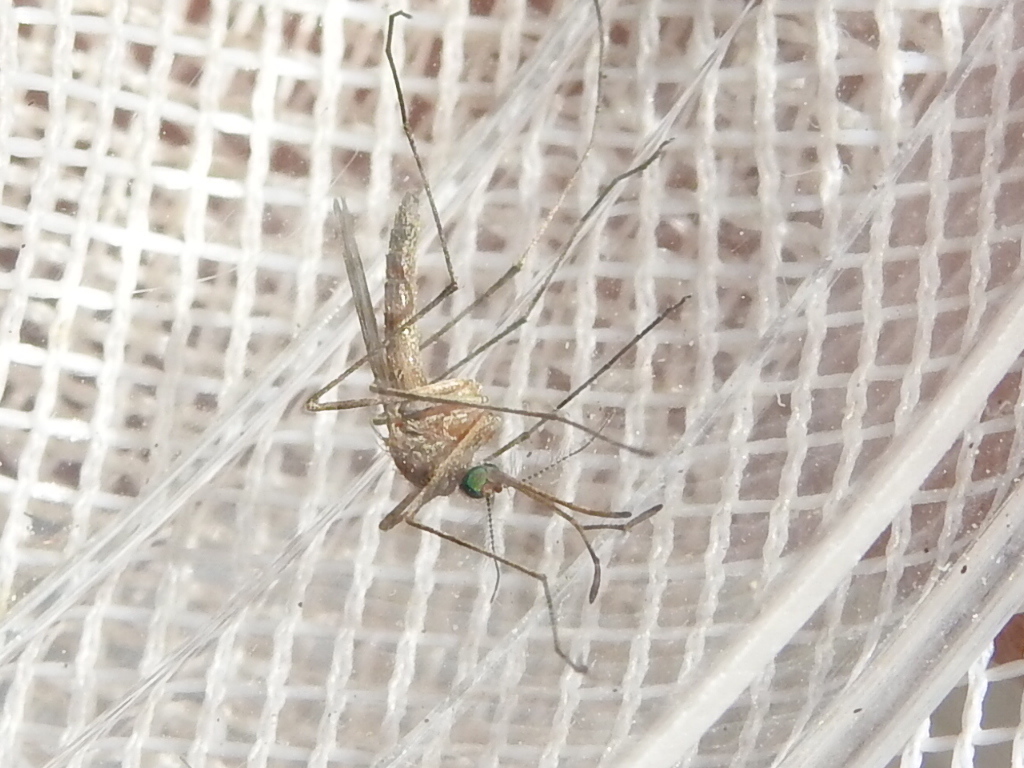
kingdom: Animalia
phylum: Arthropoda
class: Insecta
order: Diptera
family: Culicidae
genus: Culiseta
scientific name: Culiseta inornata
